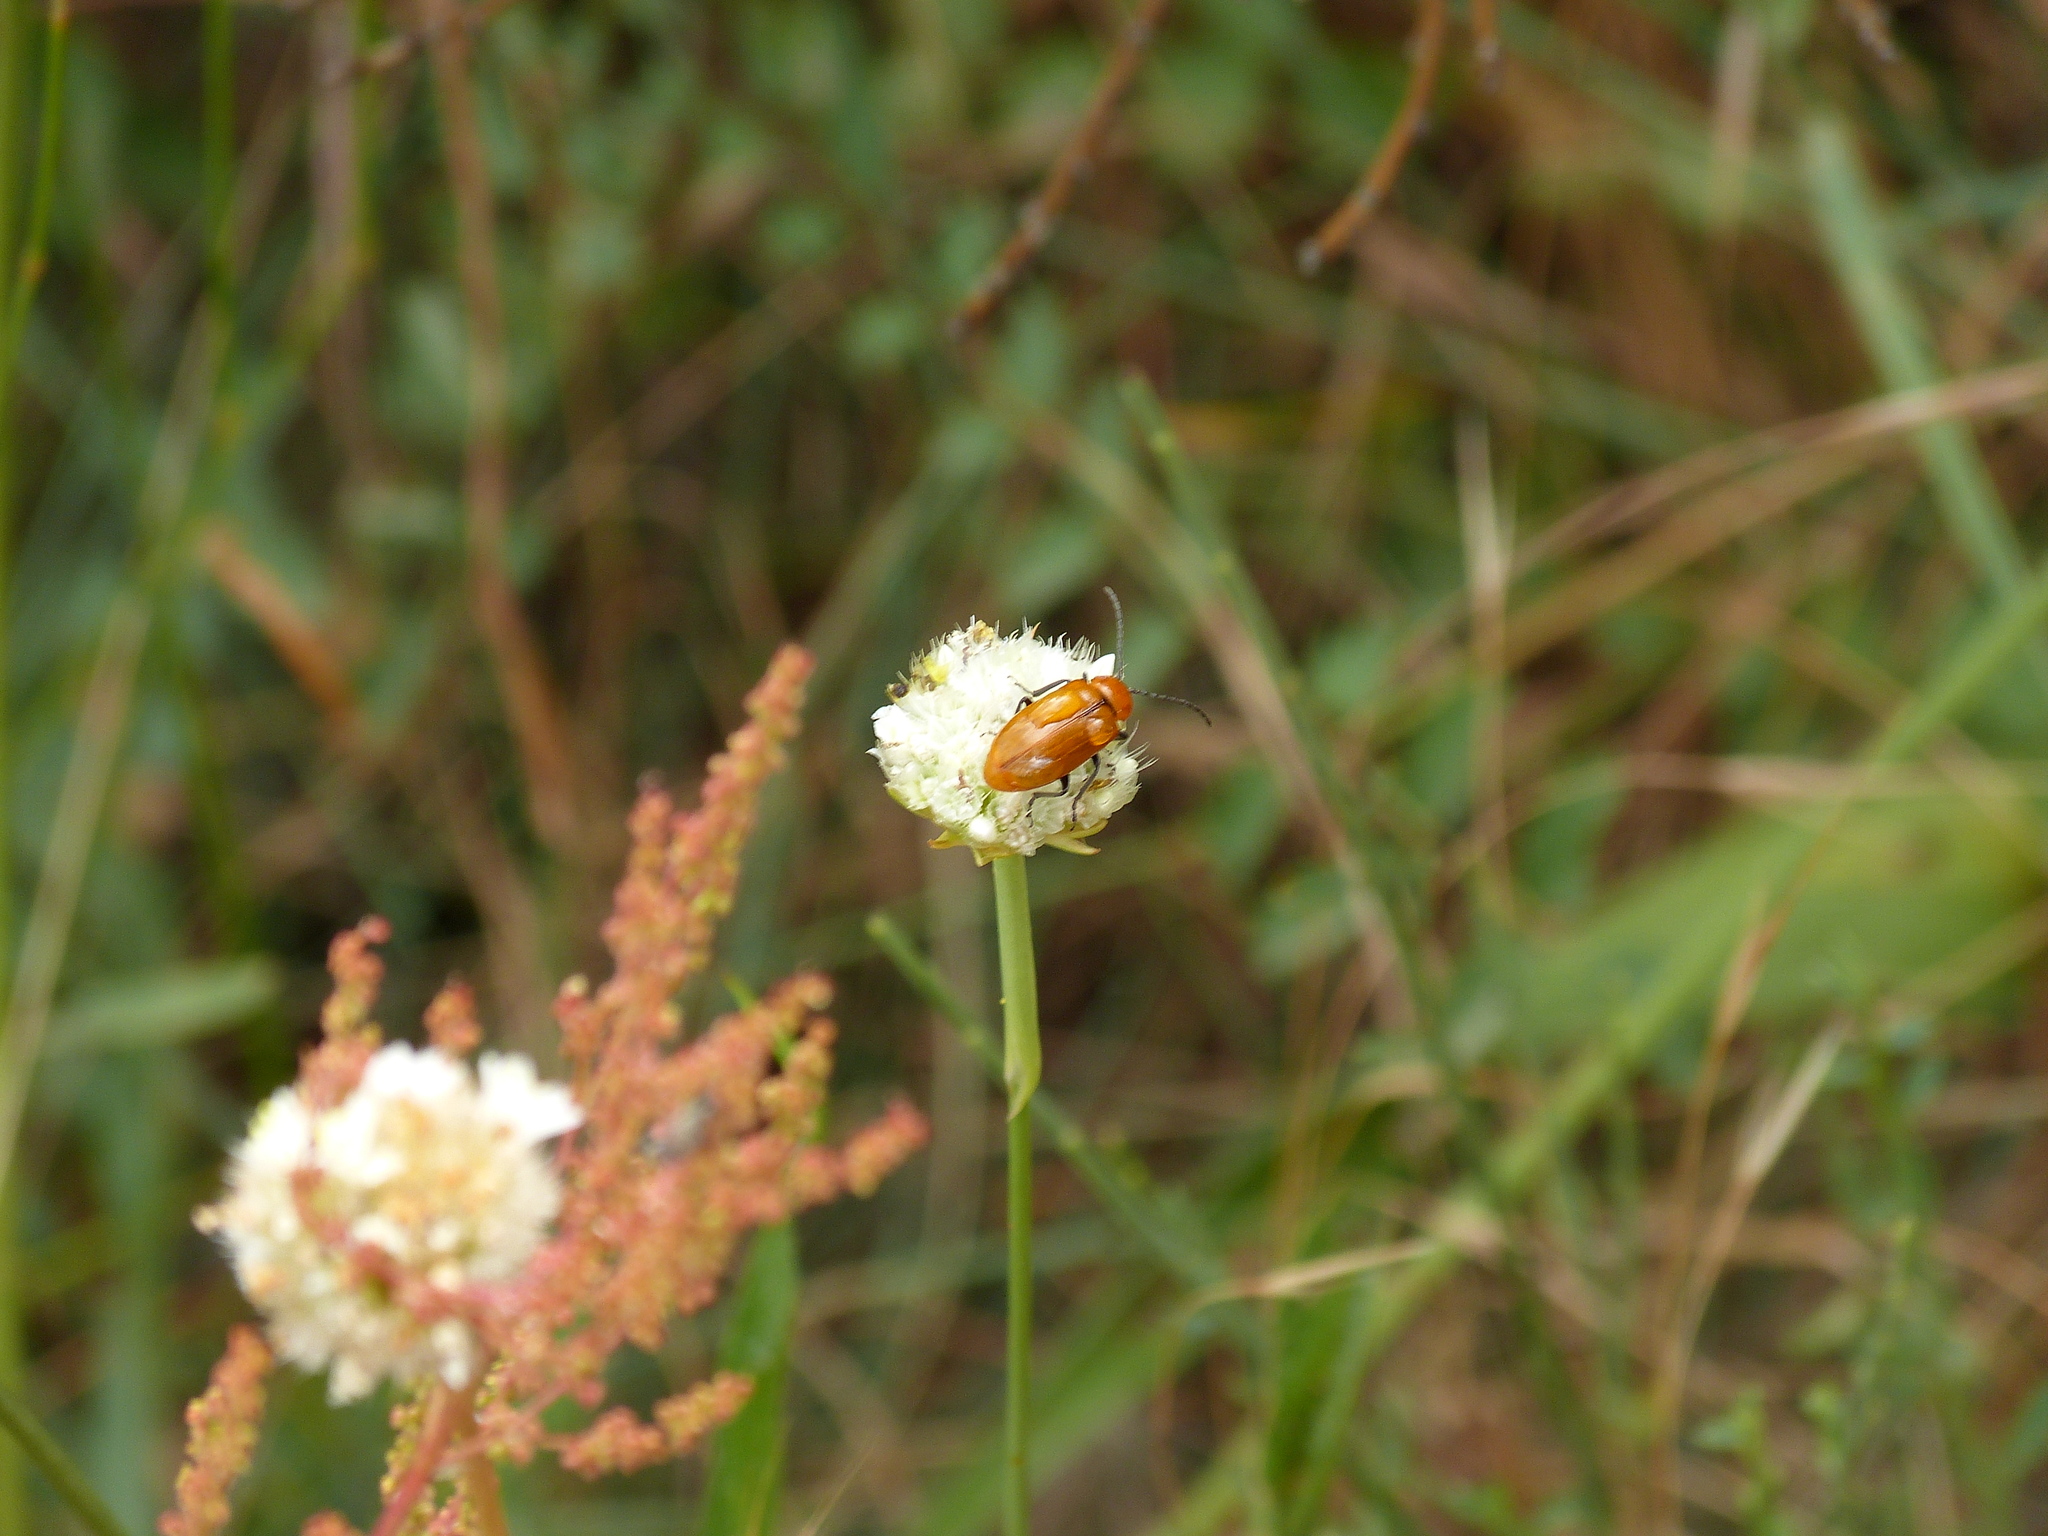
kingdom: Animalia
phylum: Arthropoda
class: Insecta
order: Coleoptera
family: Chrysomelidae
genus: Exosoma
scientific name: Exosoma lusitanicum
